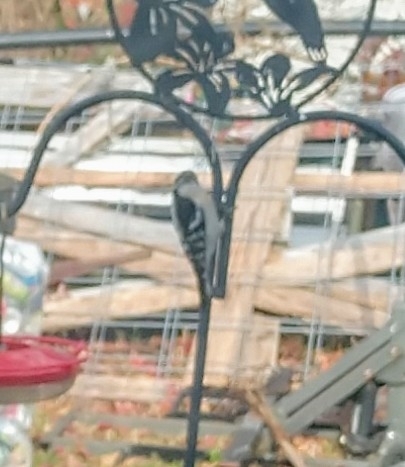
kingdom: Animalia
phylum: Chordata
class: Aves
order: Piciformes
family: Picidae
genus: Dryobates
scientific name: Dryobates pubescens
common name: Downy woodpecker
